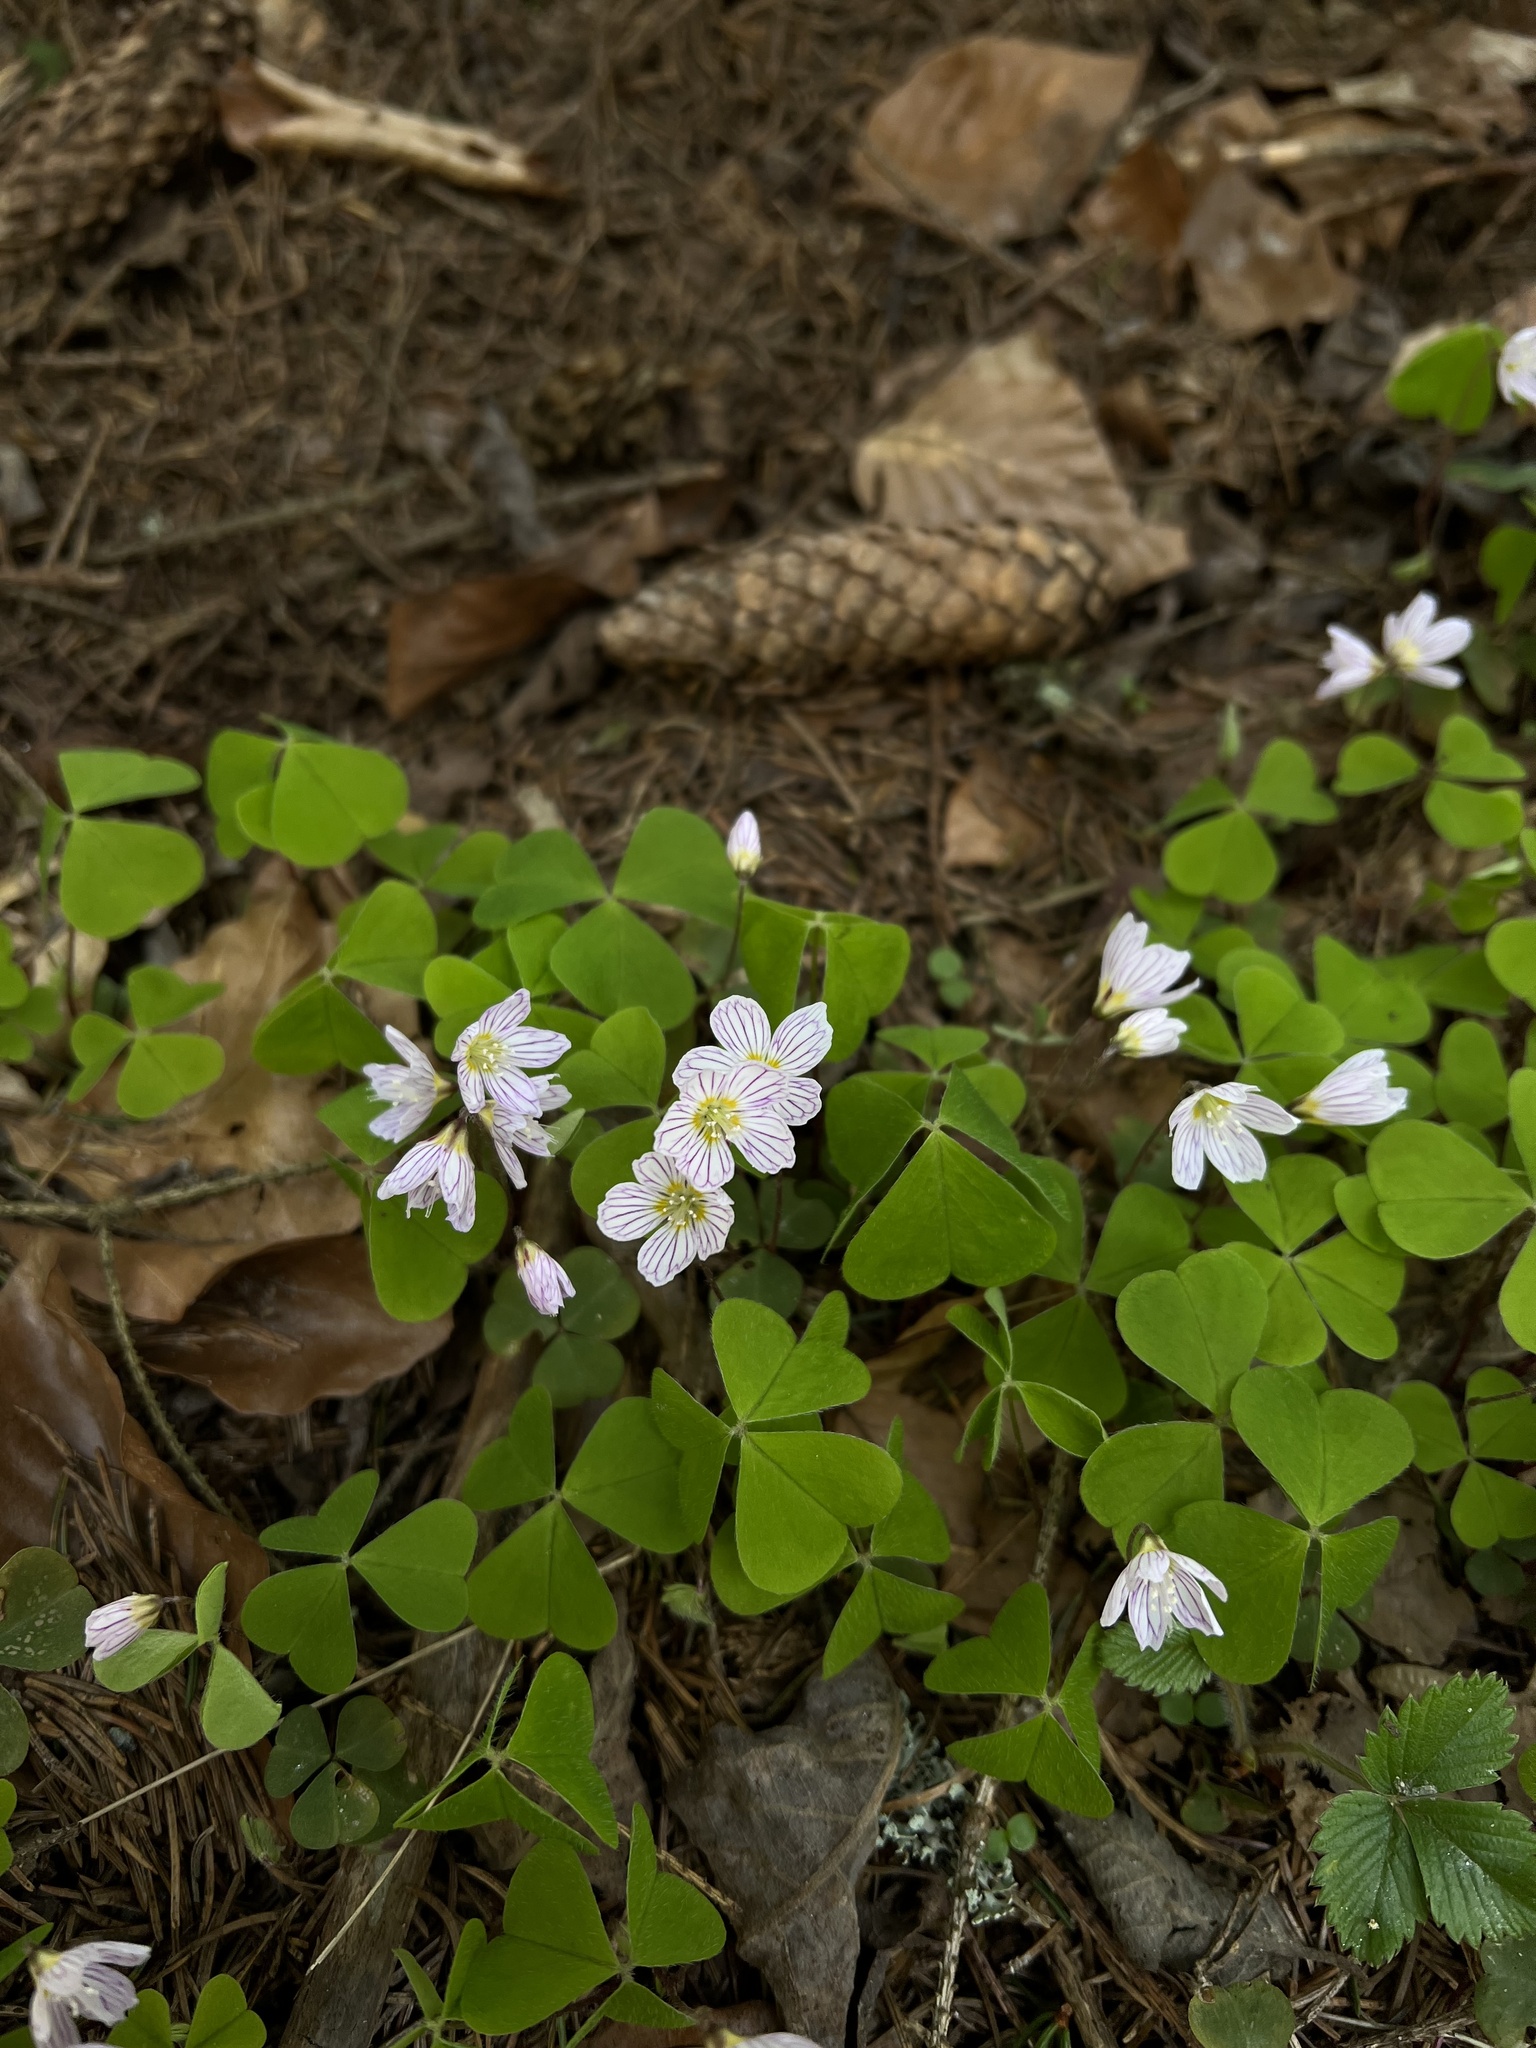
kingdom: Plantae
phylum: Tracheophyta
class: Magnoliopsida
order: Oxalidales
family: Oxalidaceae
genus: Oxalis
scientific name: Oxalis acetosella
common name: Wood-sorrel
